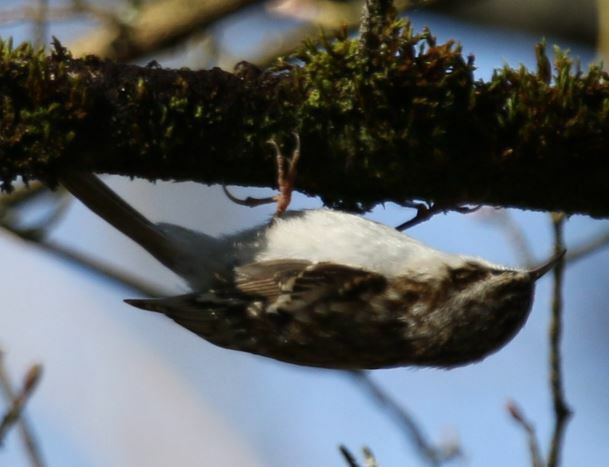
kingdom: Animalia
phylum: Chordata
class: Aves
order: Passeriformes
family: Certhiidae
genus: Certhia
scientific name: Certhia brachydactyla
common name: Short-toed treecreeper
